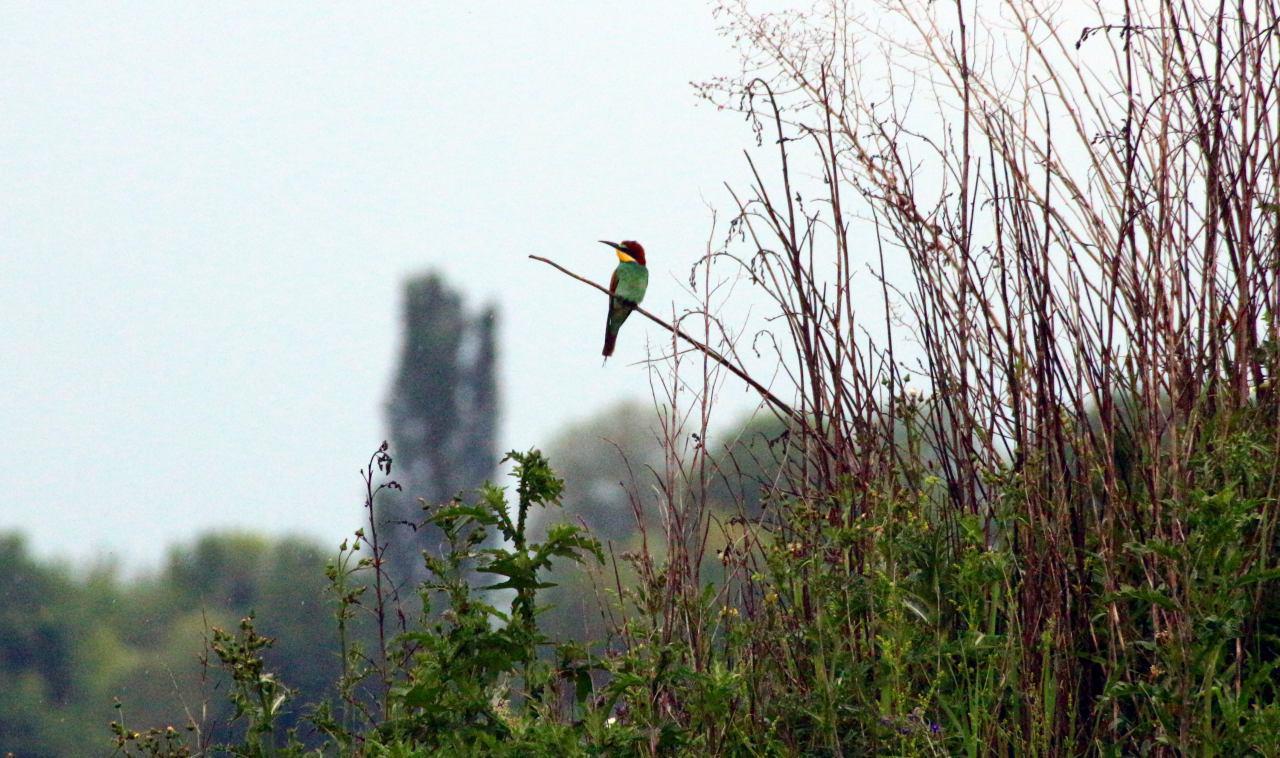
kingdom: Animalia
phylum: Chordata
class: Aves
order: Coraciiformes
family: Meropidae
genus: Merops
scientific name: Merops apiaster
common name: European bee-eater
